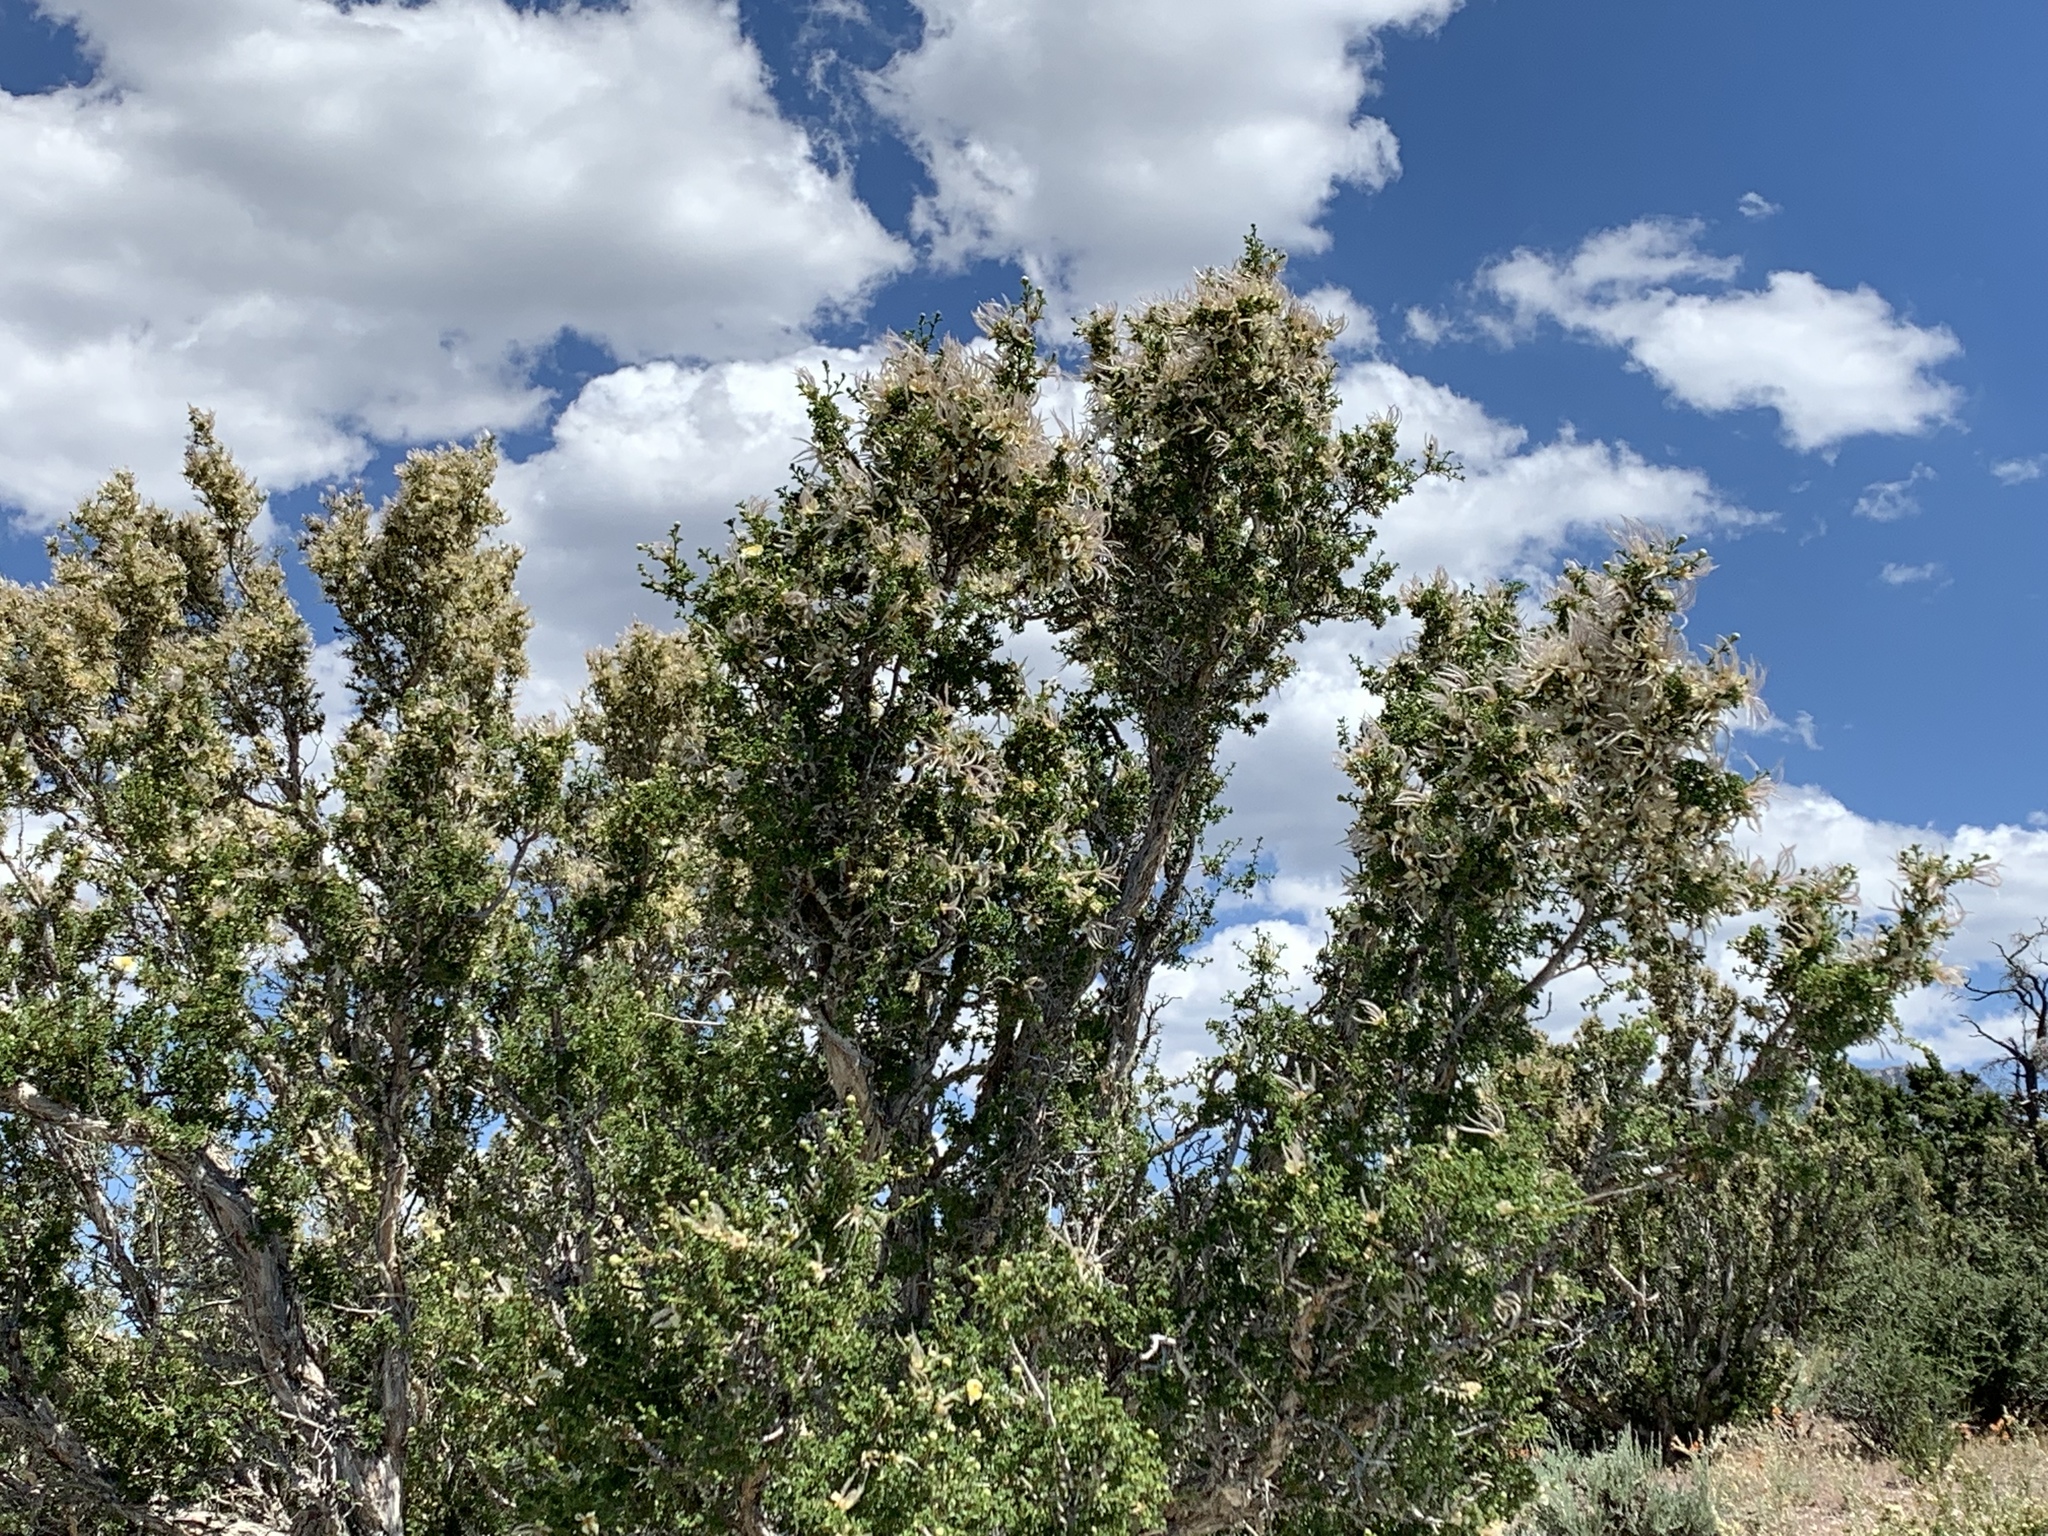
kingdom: Plantae
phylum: Tracheophyta
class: Magnoliopsida
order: Rosales
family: Rosaceae
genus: Purshia
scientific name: Purshia stansburiana
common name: Stansbury's cliffrose
